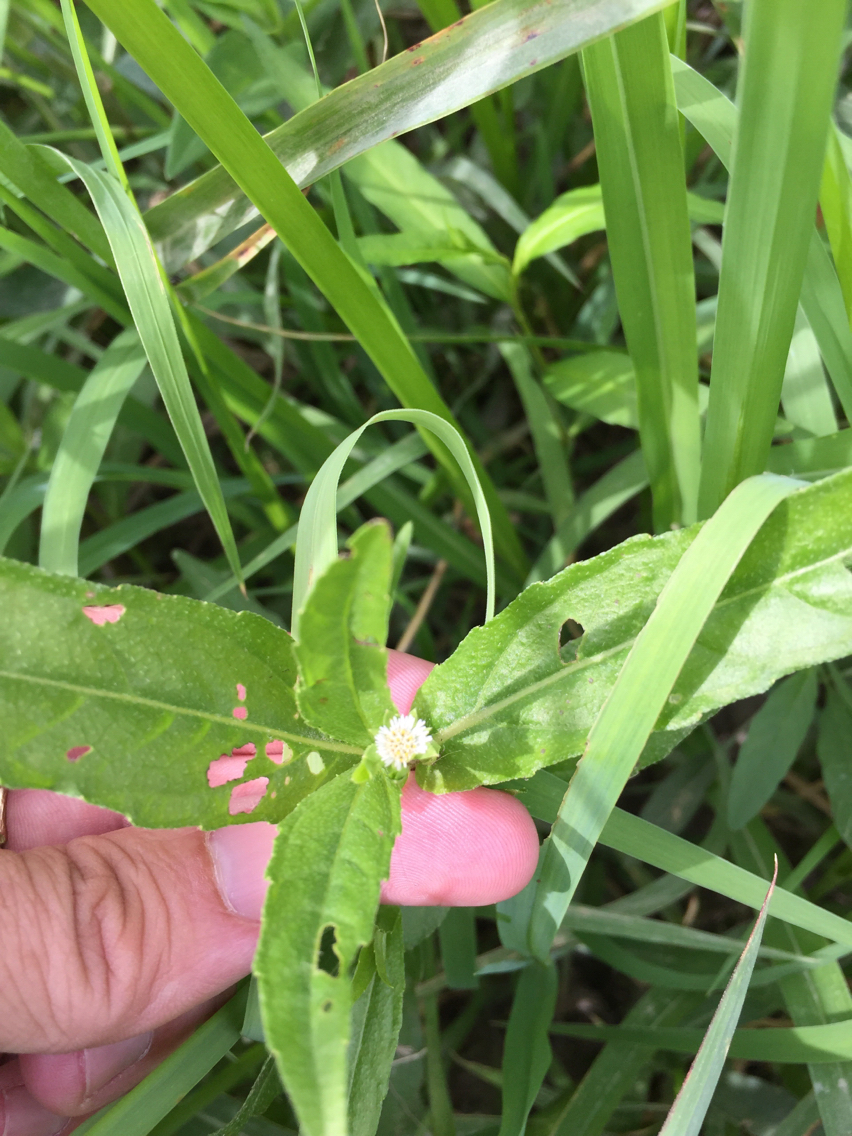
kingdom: Plantae
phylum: Tracheophyta
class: Magnoliopsida
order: Asterales
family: Asteraceae
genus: Eclipta
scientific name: Eclipta prostrata
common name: False daisy
